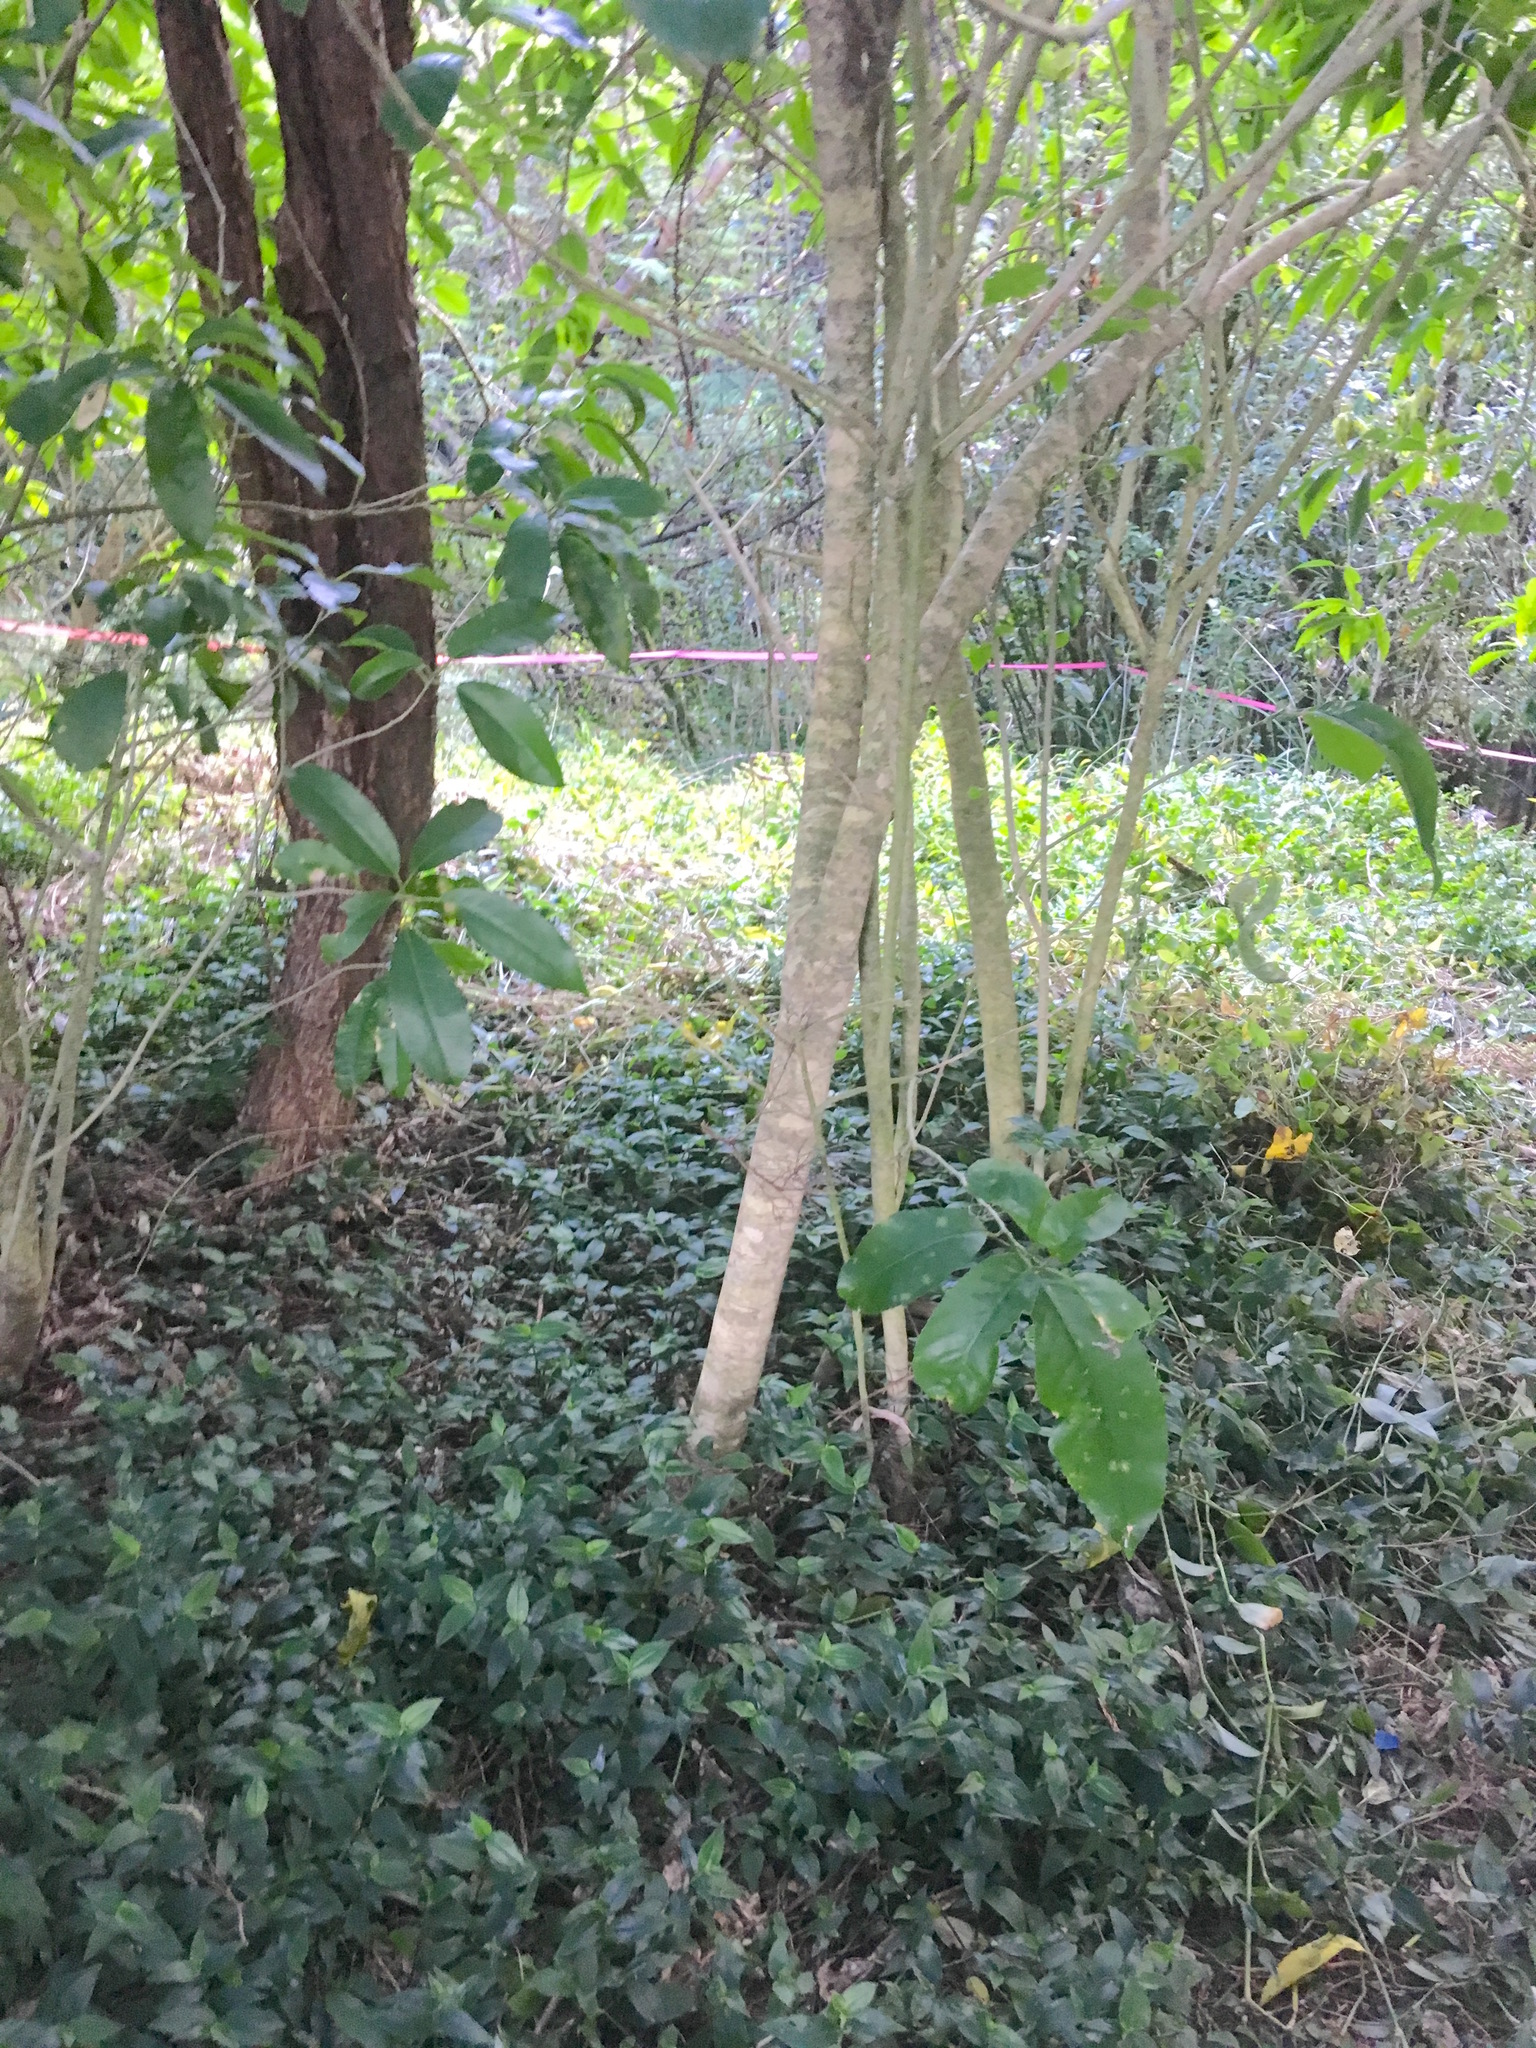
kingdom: Plantae
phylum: Tracheophyta
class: Magnoliopsida
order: Malpighiales
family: Violaceae
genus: Melicytus
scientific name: Melicytus ramiflorus
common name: Mahoe
